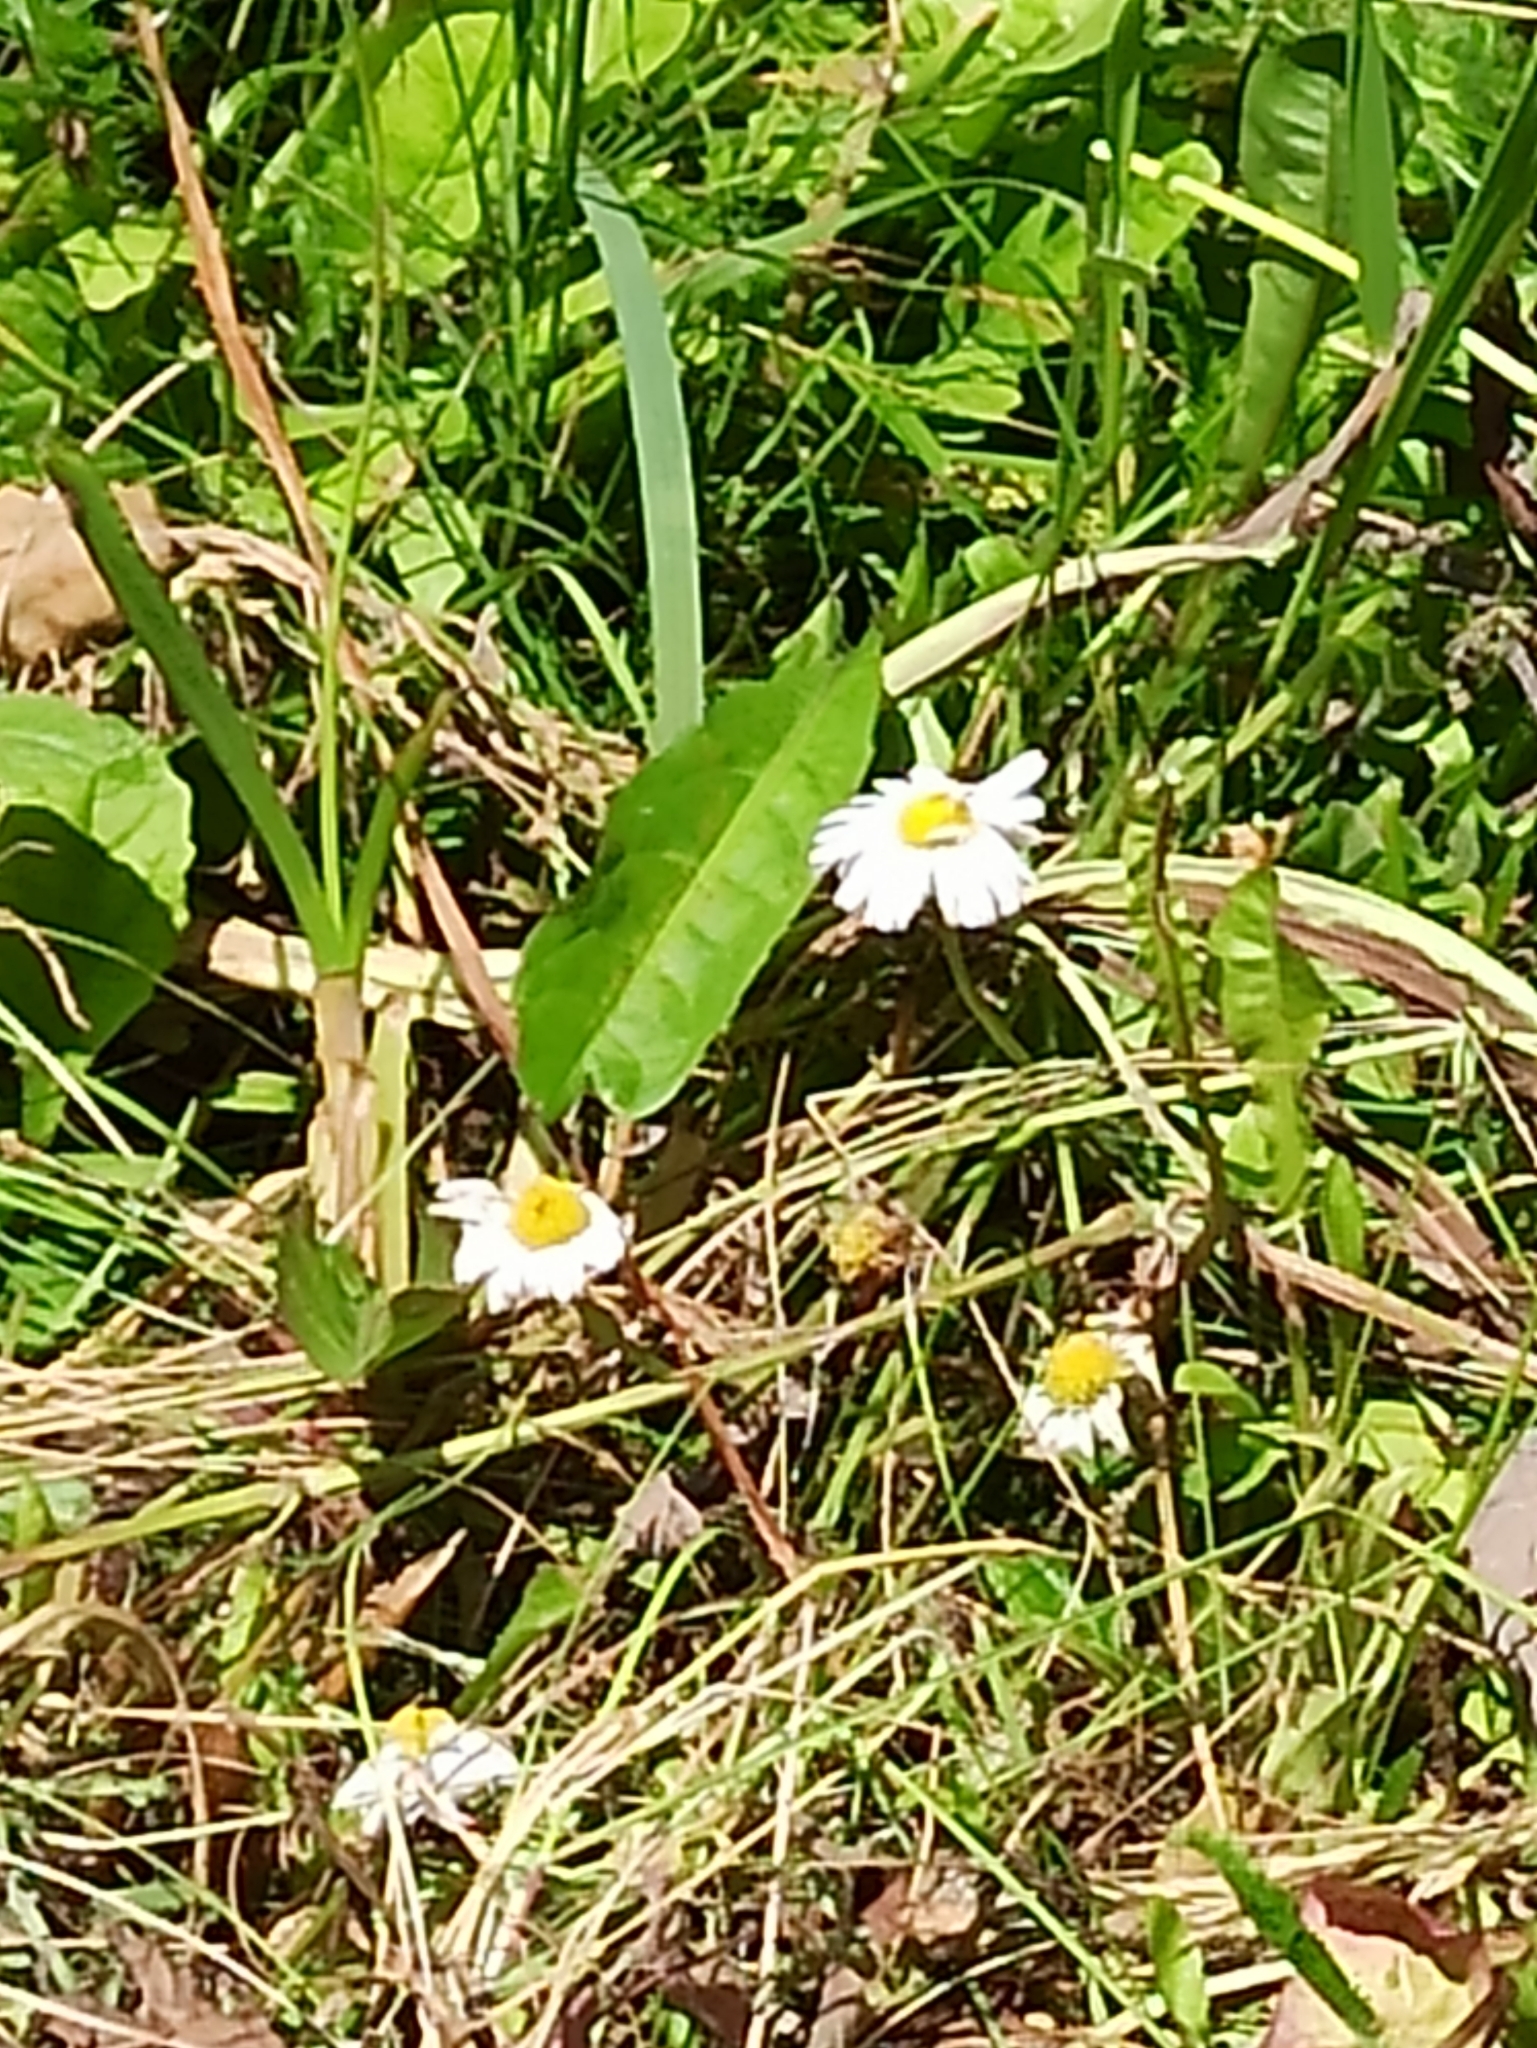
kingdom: Plantae
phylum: Tracheophyta
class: Magnoliopsida
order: Asterales
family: Asteraceae
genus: Tripleurospermum
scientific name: Tripleurospermum inodorum
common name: Scentless mayweed
